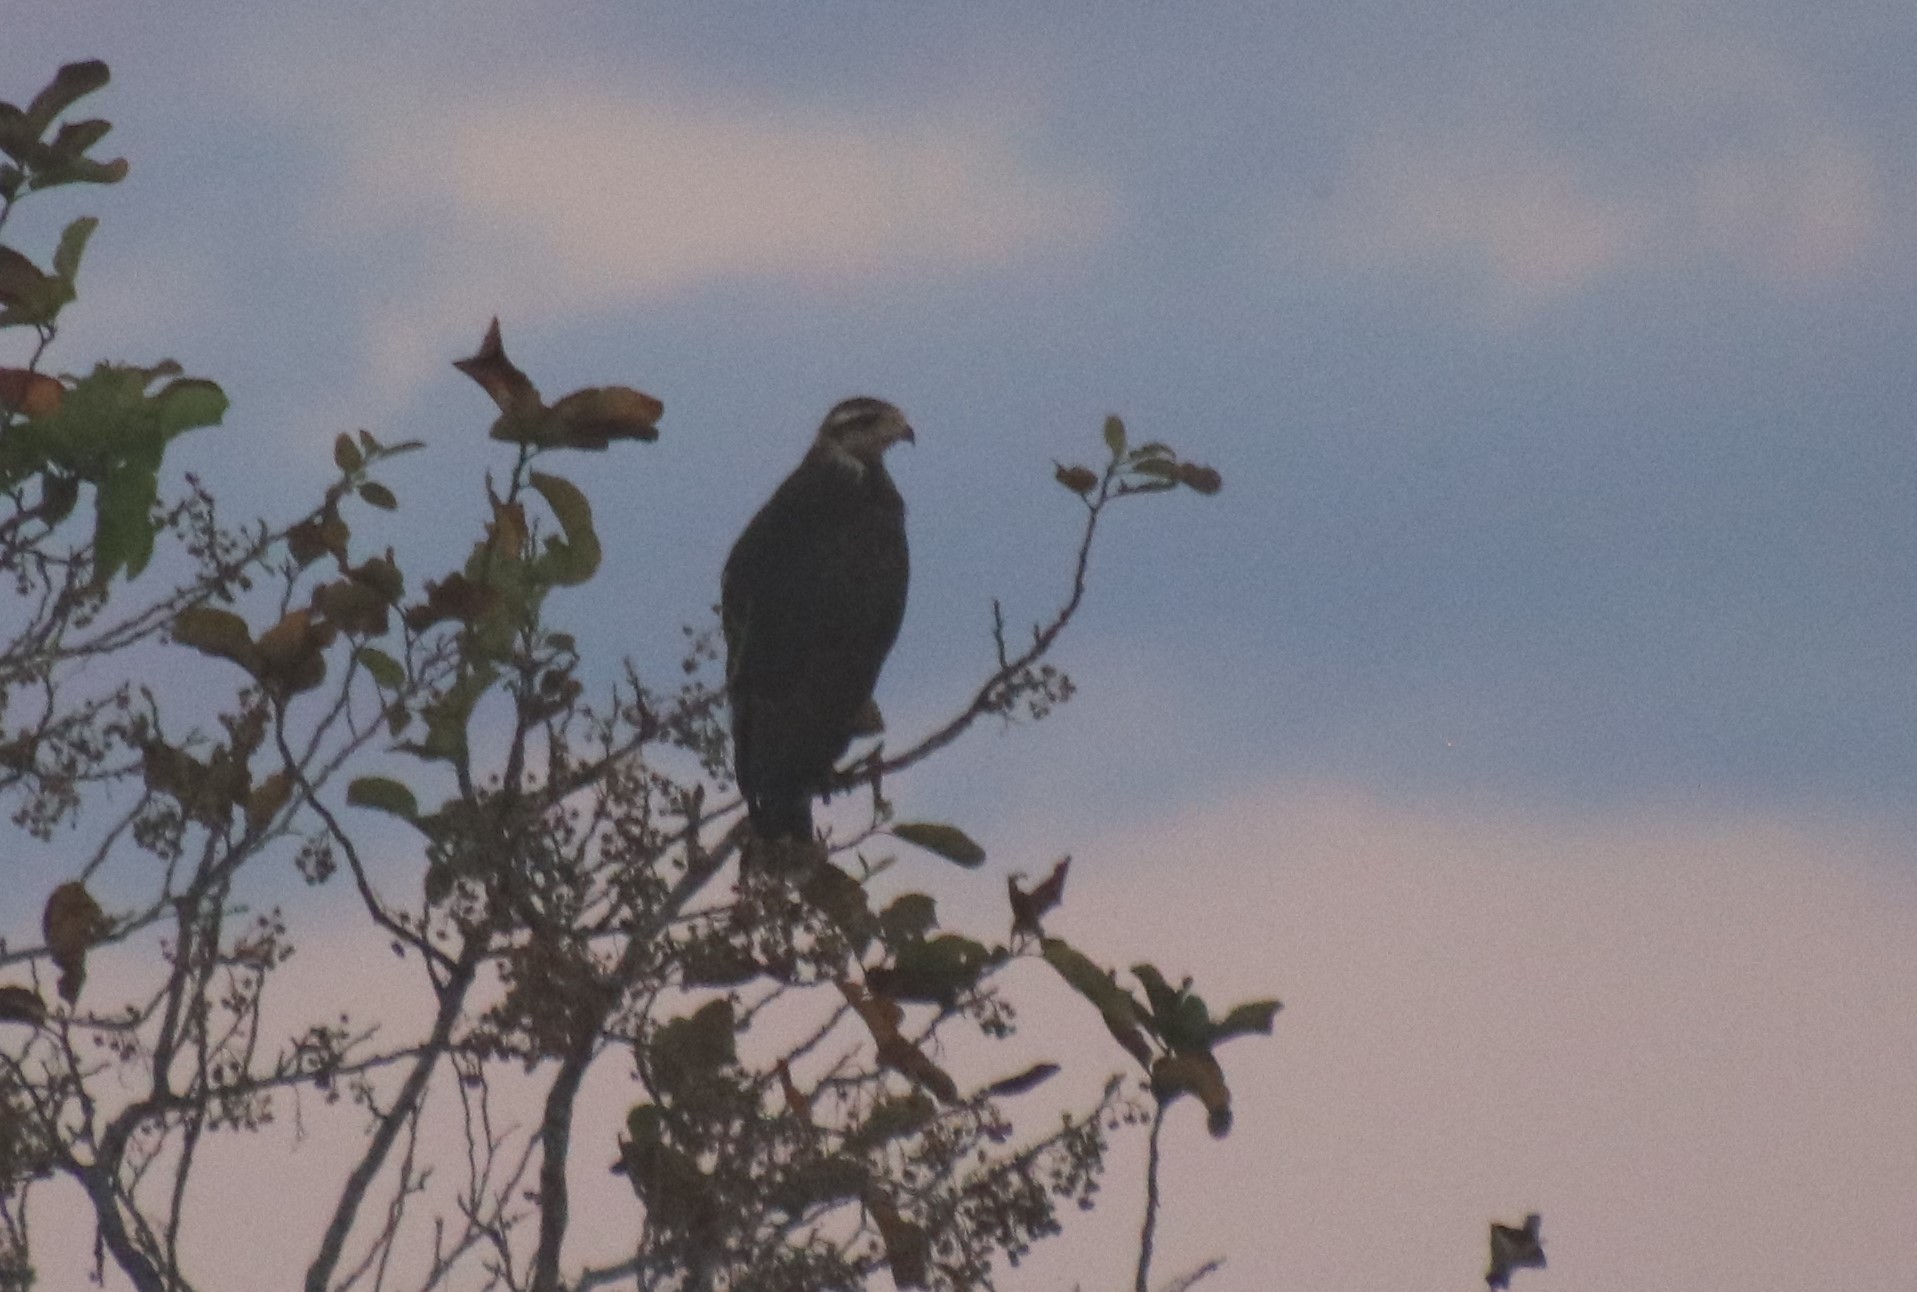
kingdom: Animalia
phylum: Chordata
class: Aves
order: Accipitriformes
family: Accipitridae
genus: Buteogallus
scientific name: Buteogallus meridionalis
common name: Savanna hawk
